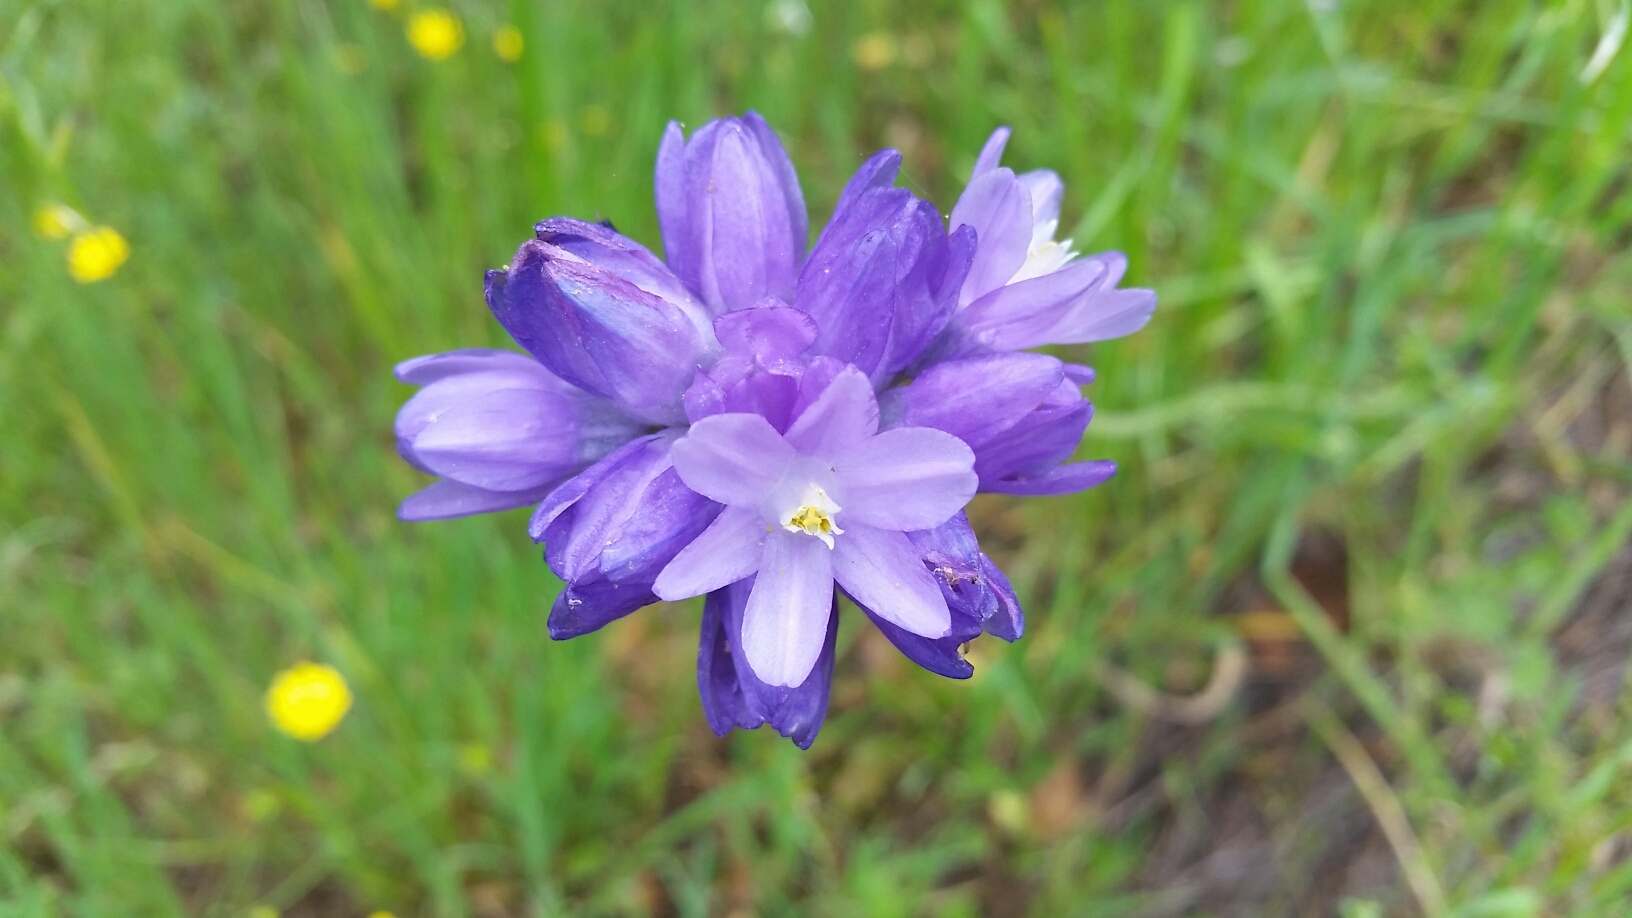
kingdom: Plantae
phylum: Tracheophyta
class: Liliopsida
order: Asparagales
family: Asparagaceae
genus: Dipterostemon
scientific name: Dipterostemon capitatus
